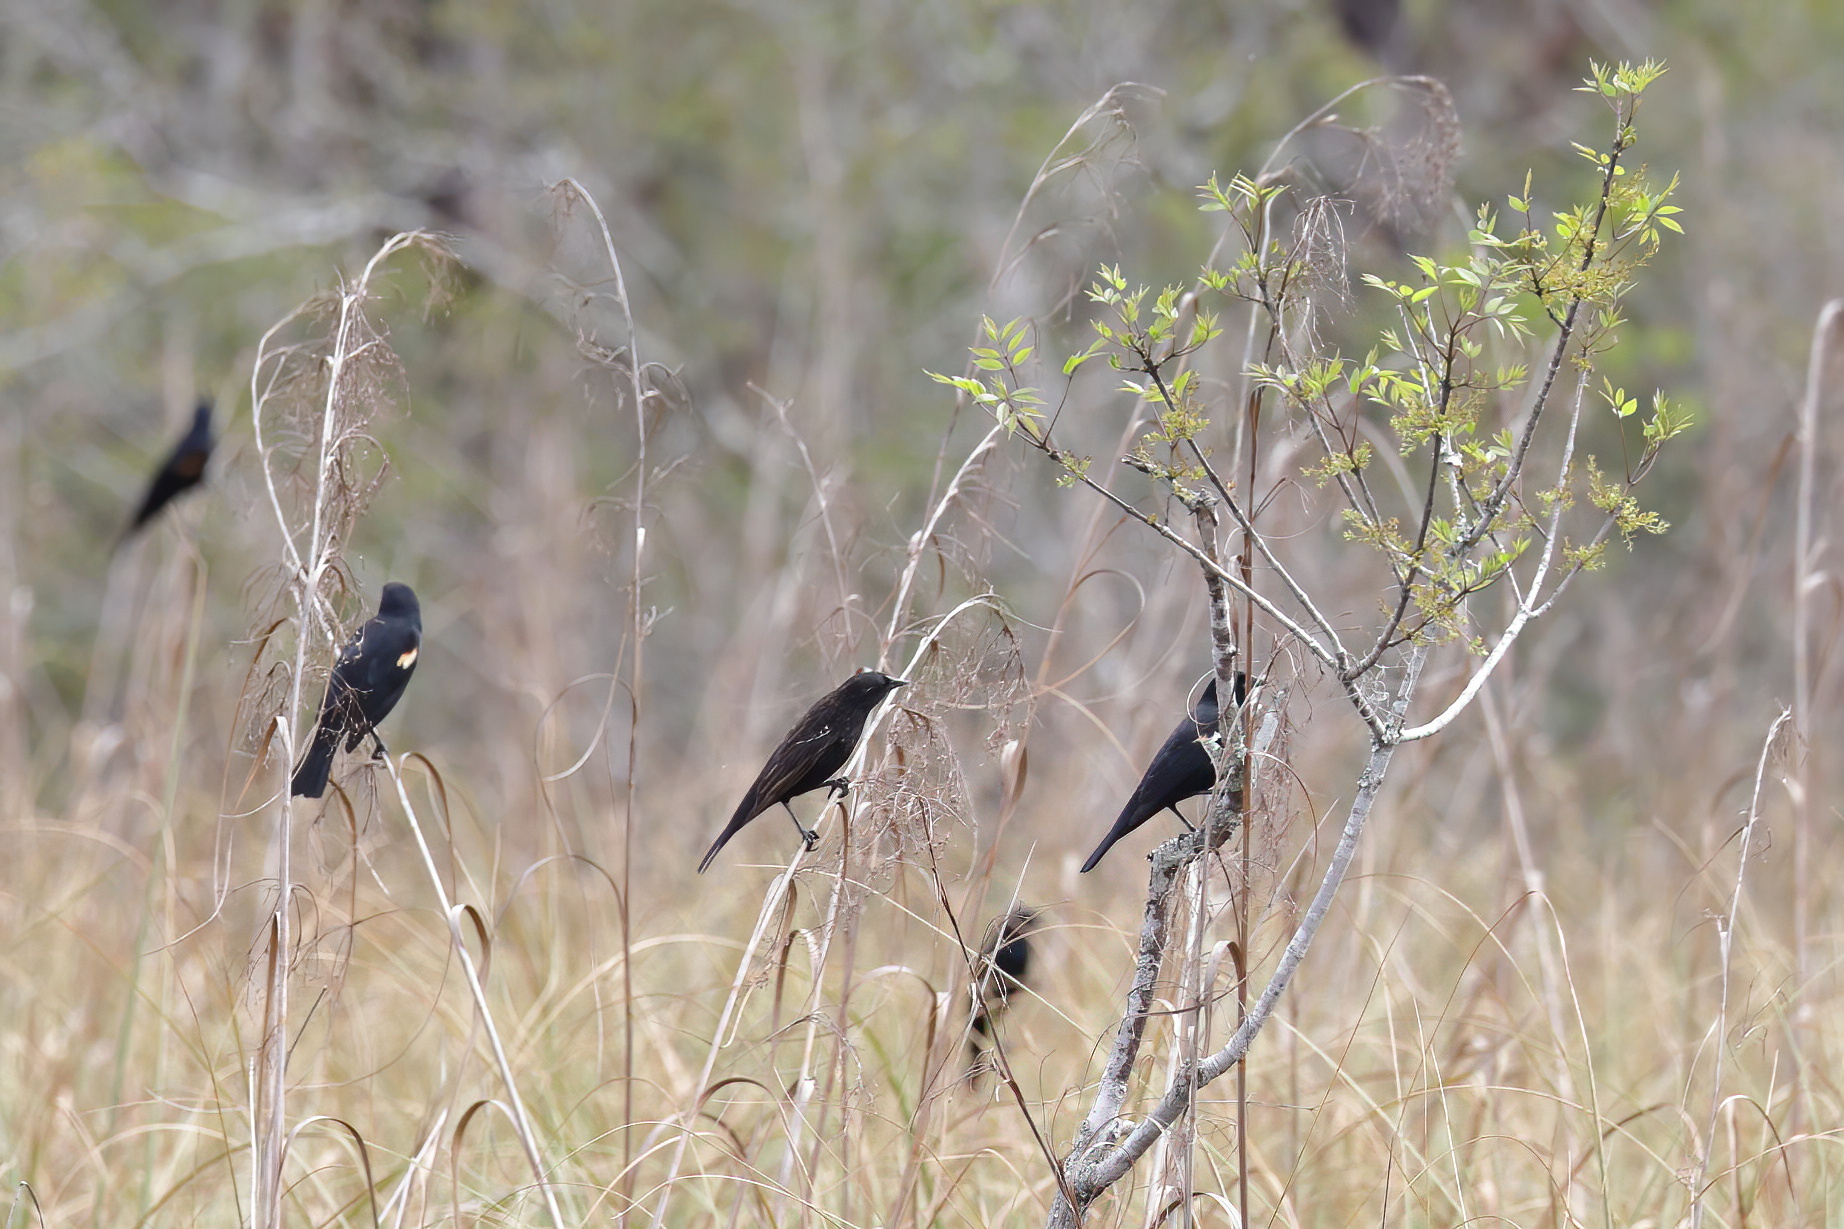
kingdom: Animalia
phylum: Chordata
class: Aves
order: Passeriformes
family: Icteridae
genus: Agelaius
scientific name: Agelaius phoeniceus
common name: Red-winged blackbird
